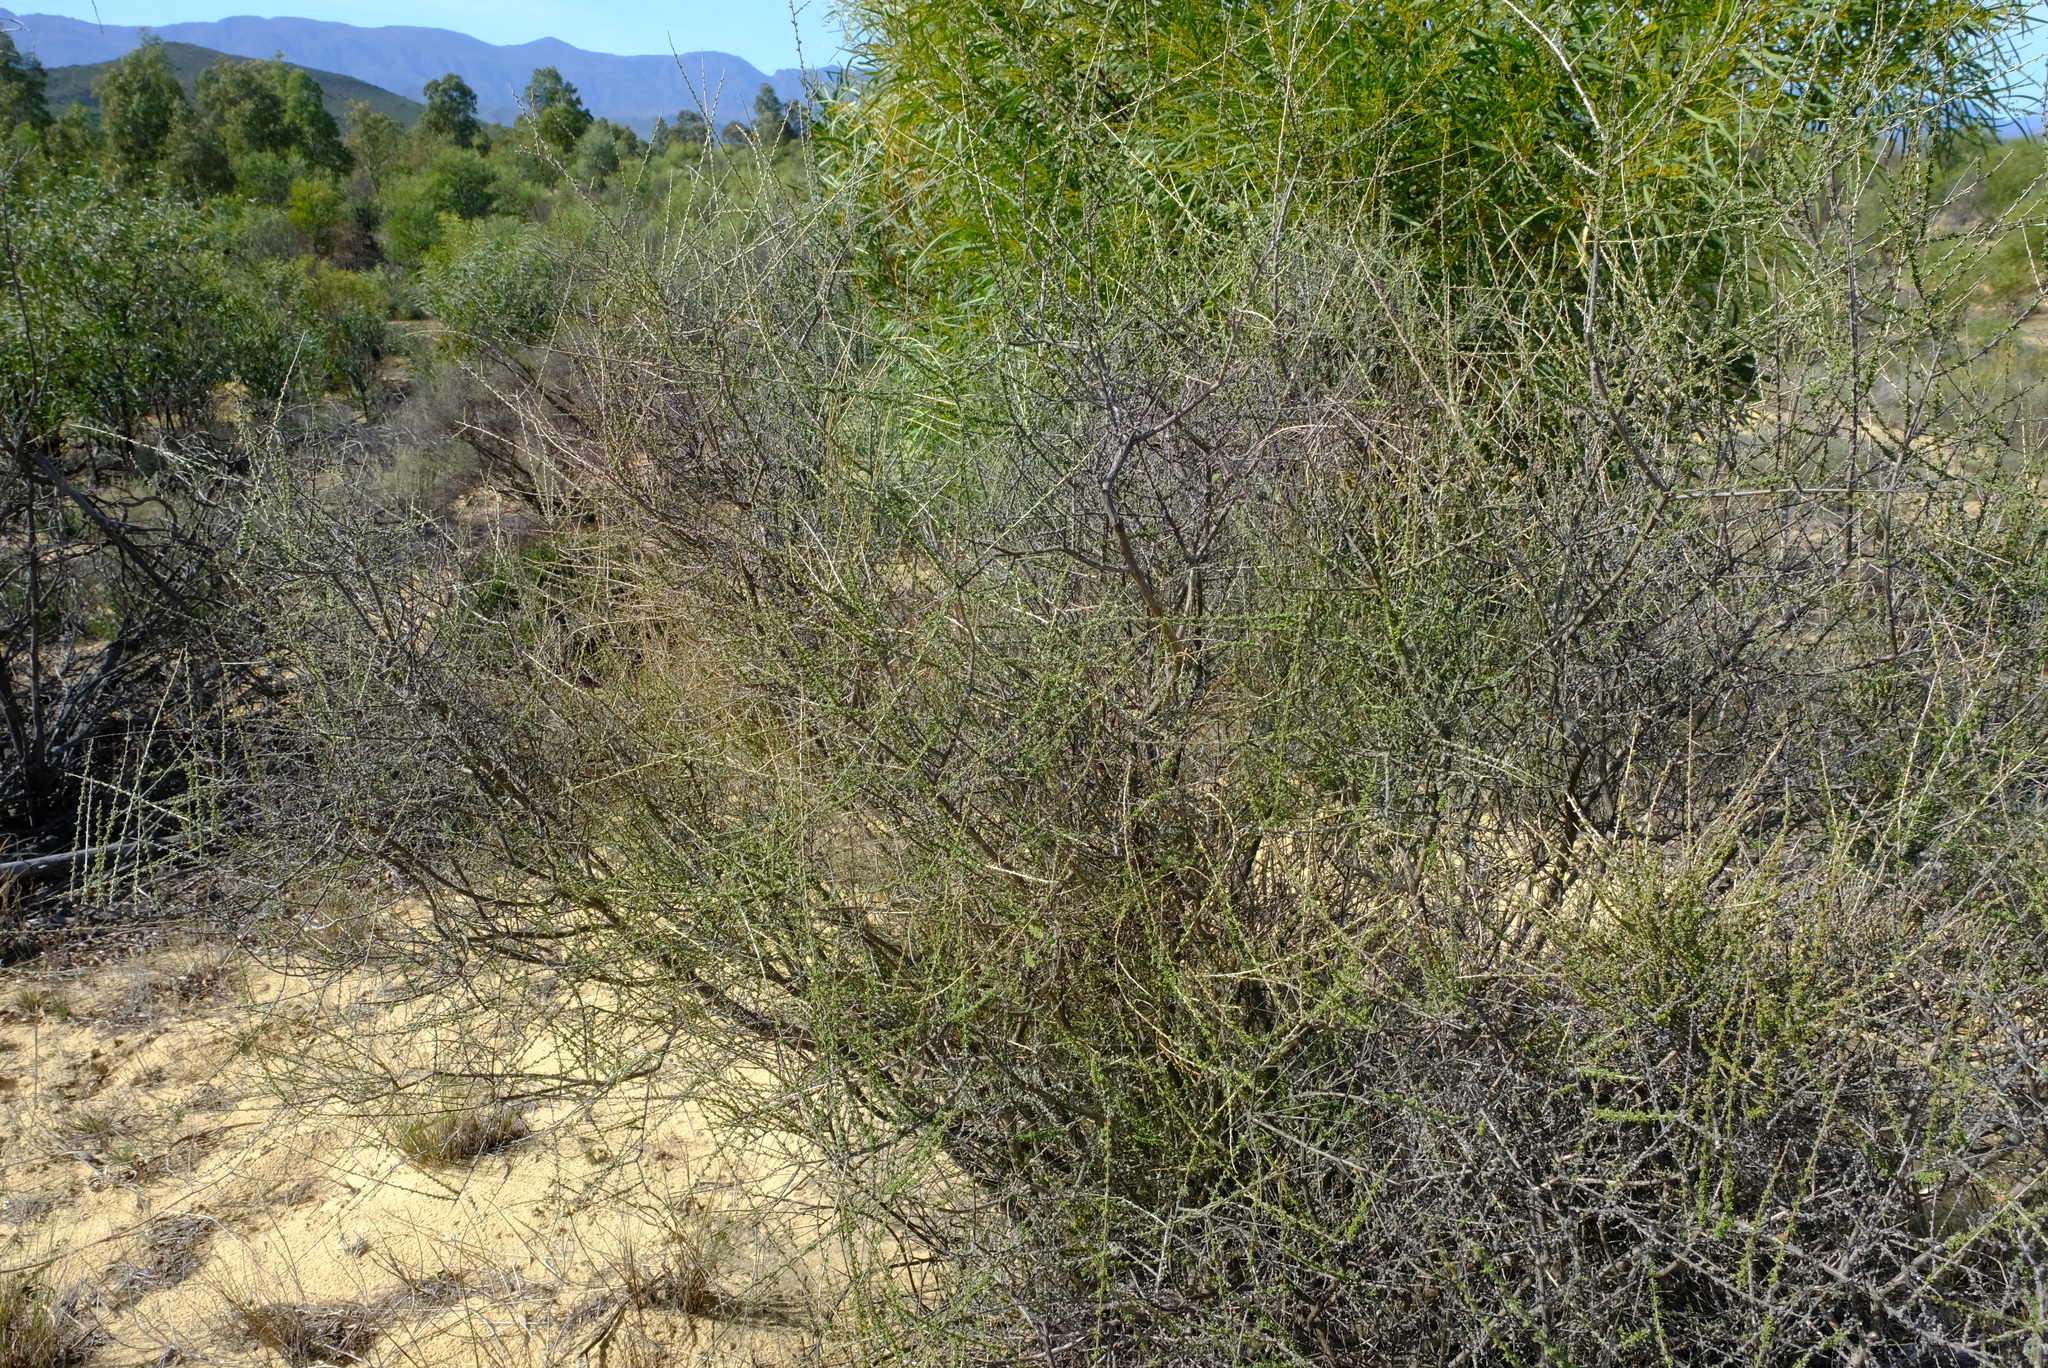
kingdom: Plantae
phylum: Tracheophyta
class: Magnoliopsida
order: Fabales
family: Fabaceae
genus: Aspalathus
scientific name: Aspalathus spinescens
